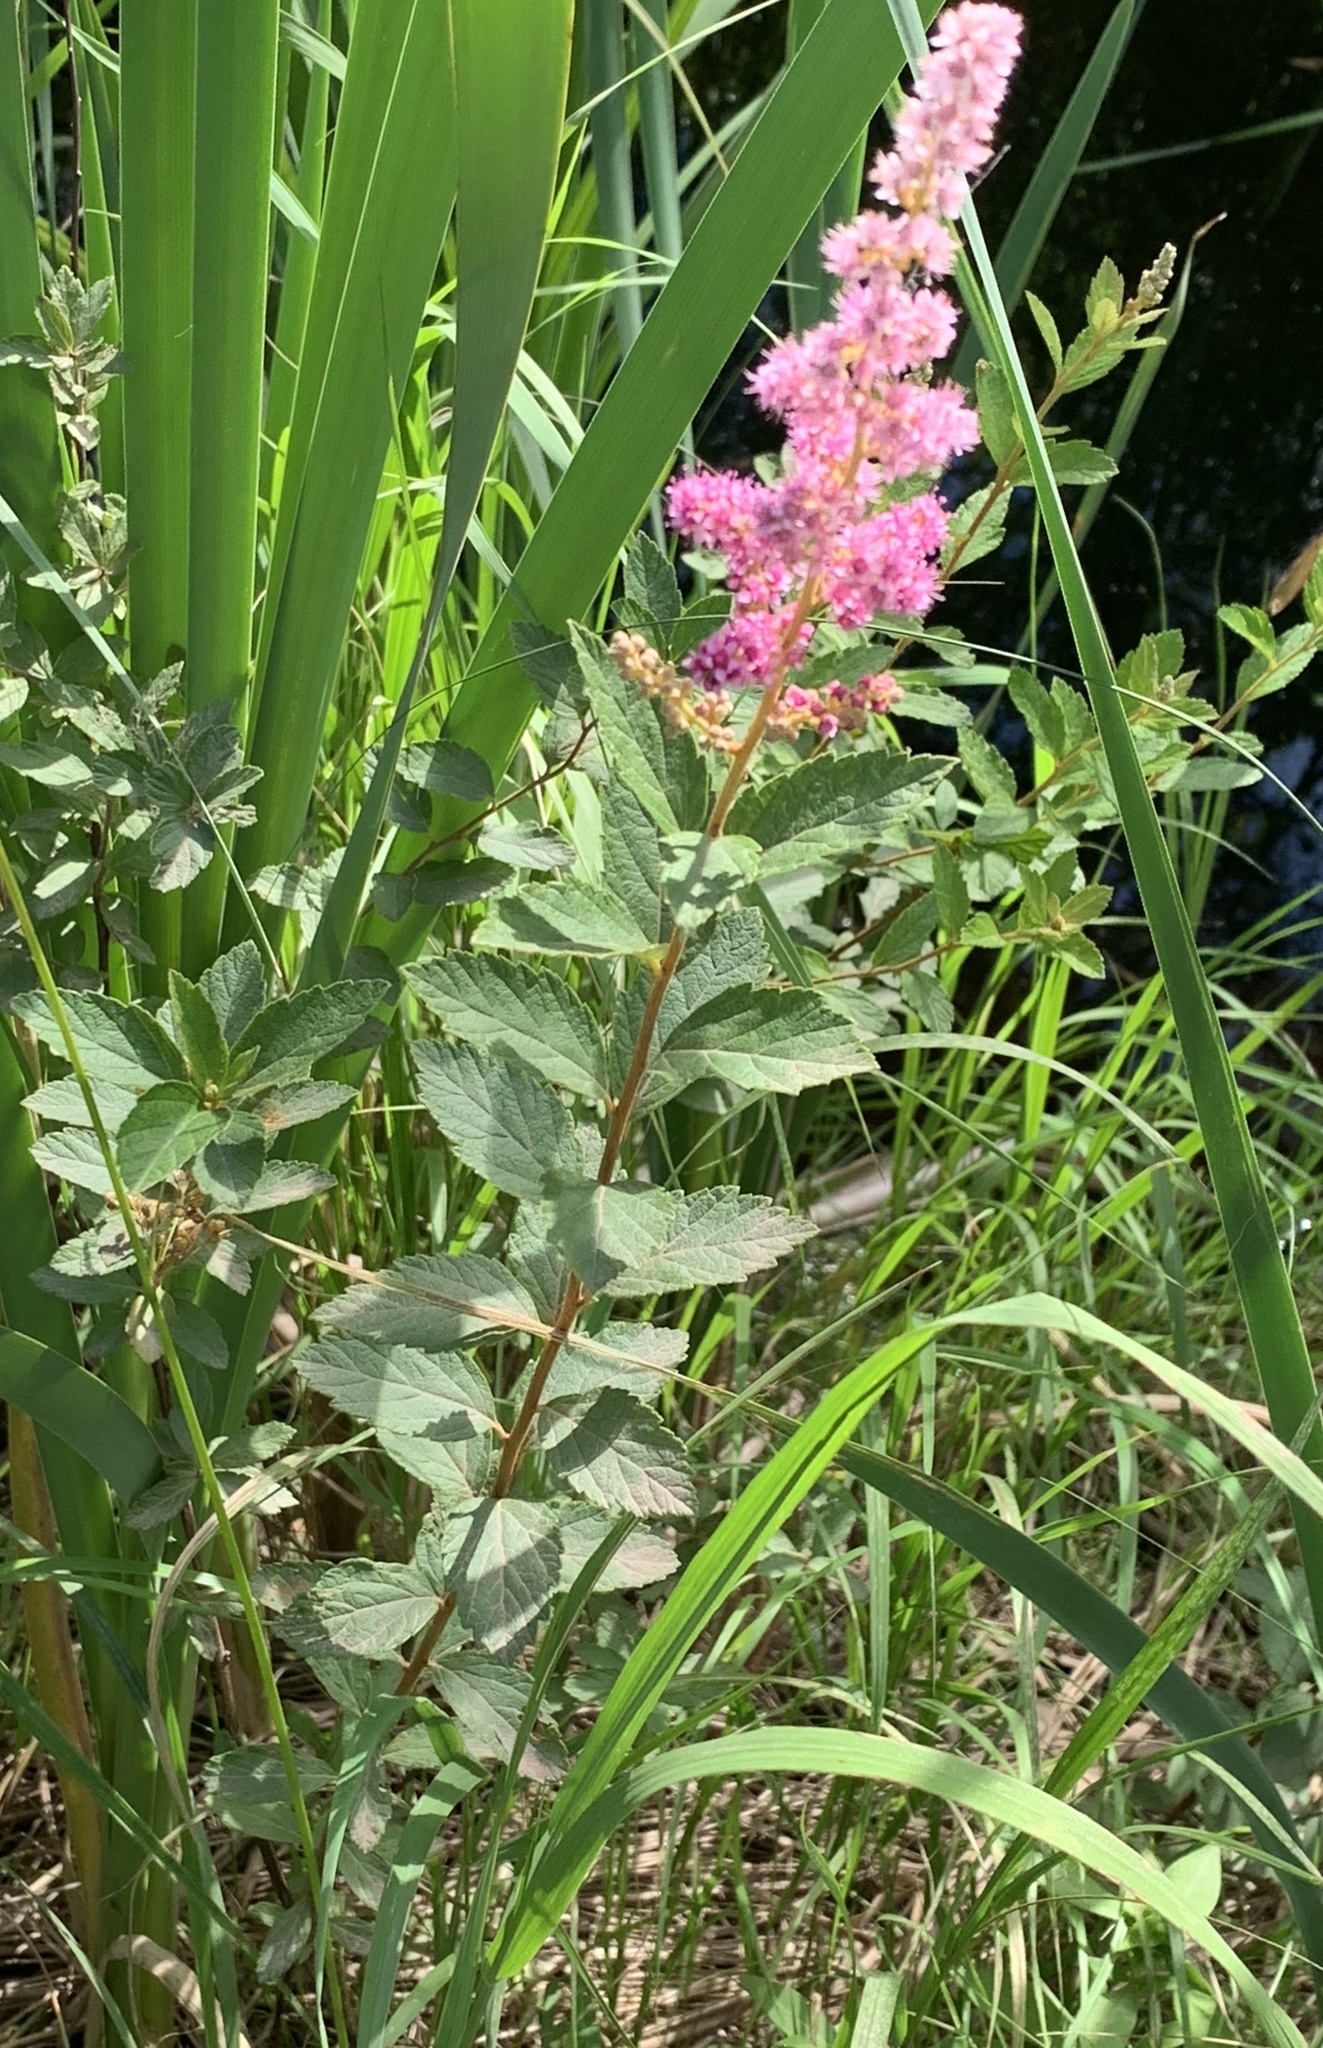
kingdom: Plantae
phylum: Tracheophyta
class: Magnoliopsida
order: Rosales
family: Rosaceae
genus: Spiraea
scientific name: Spiraea tomentosa
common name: Hardhack
